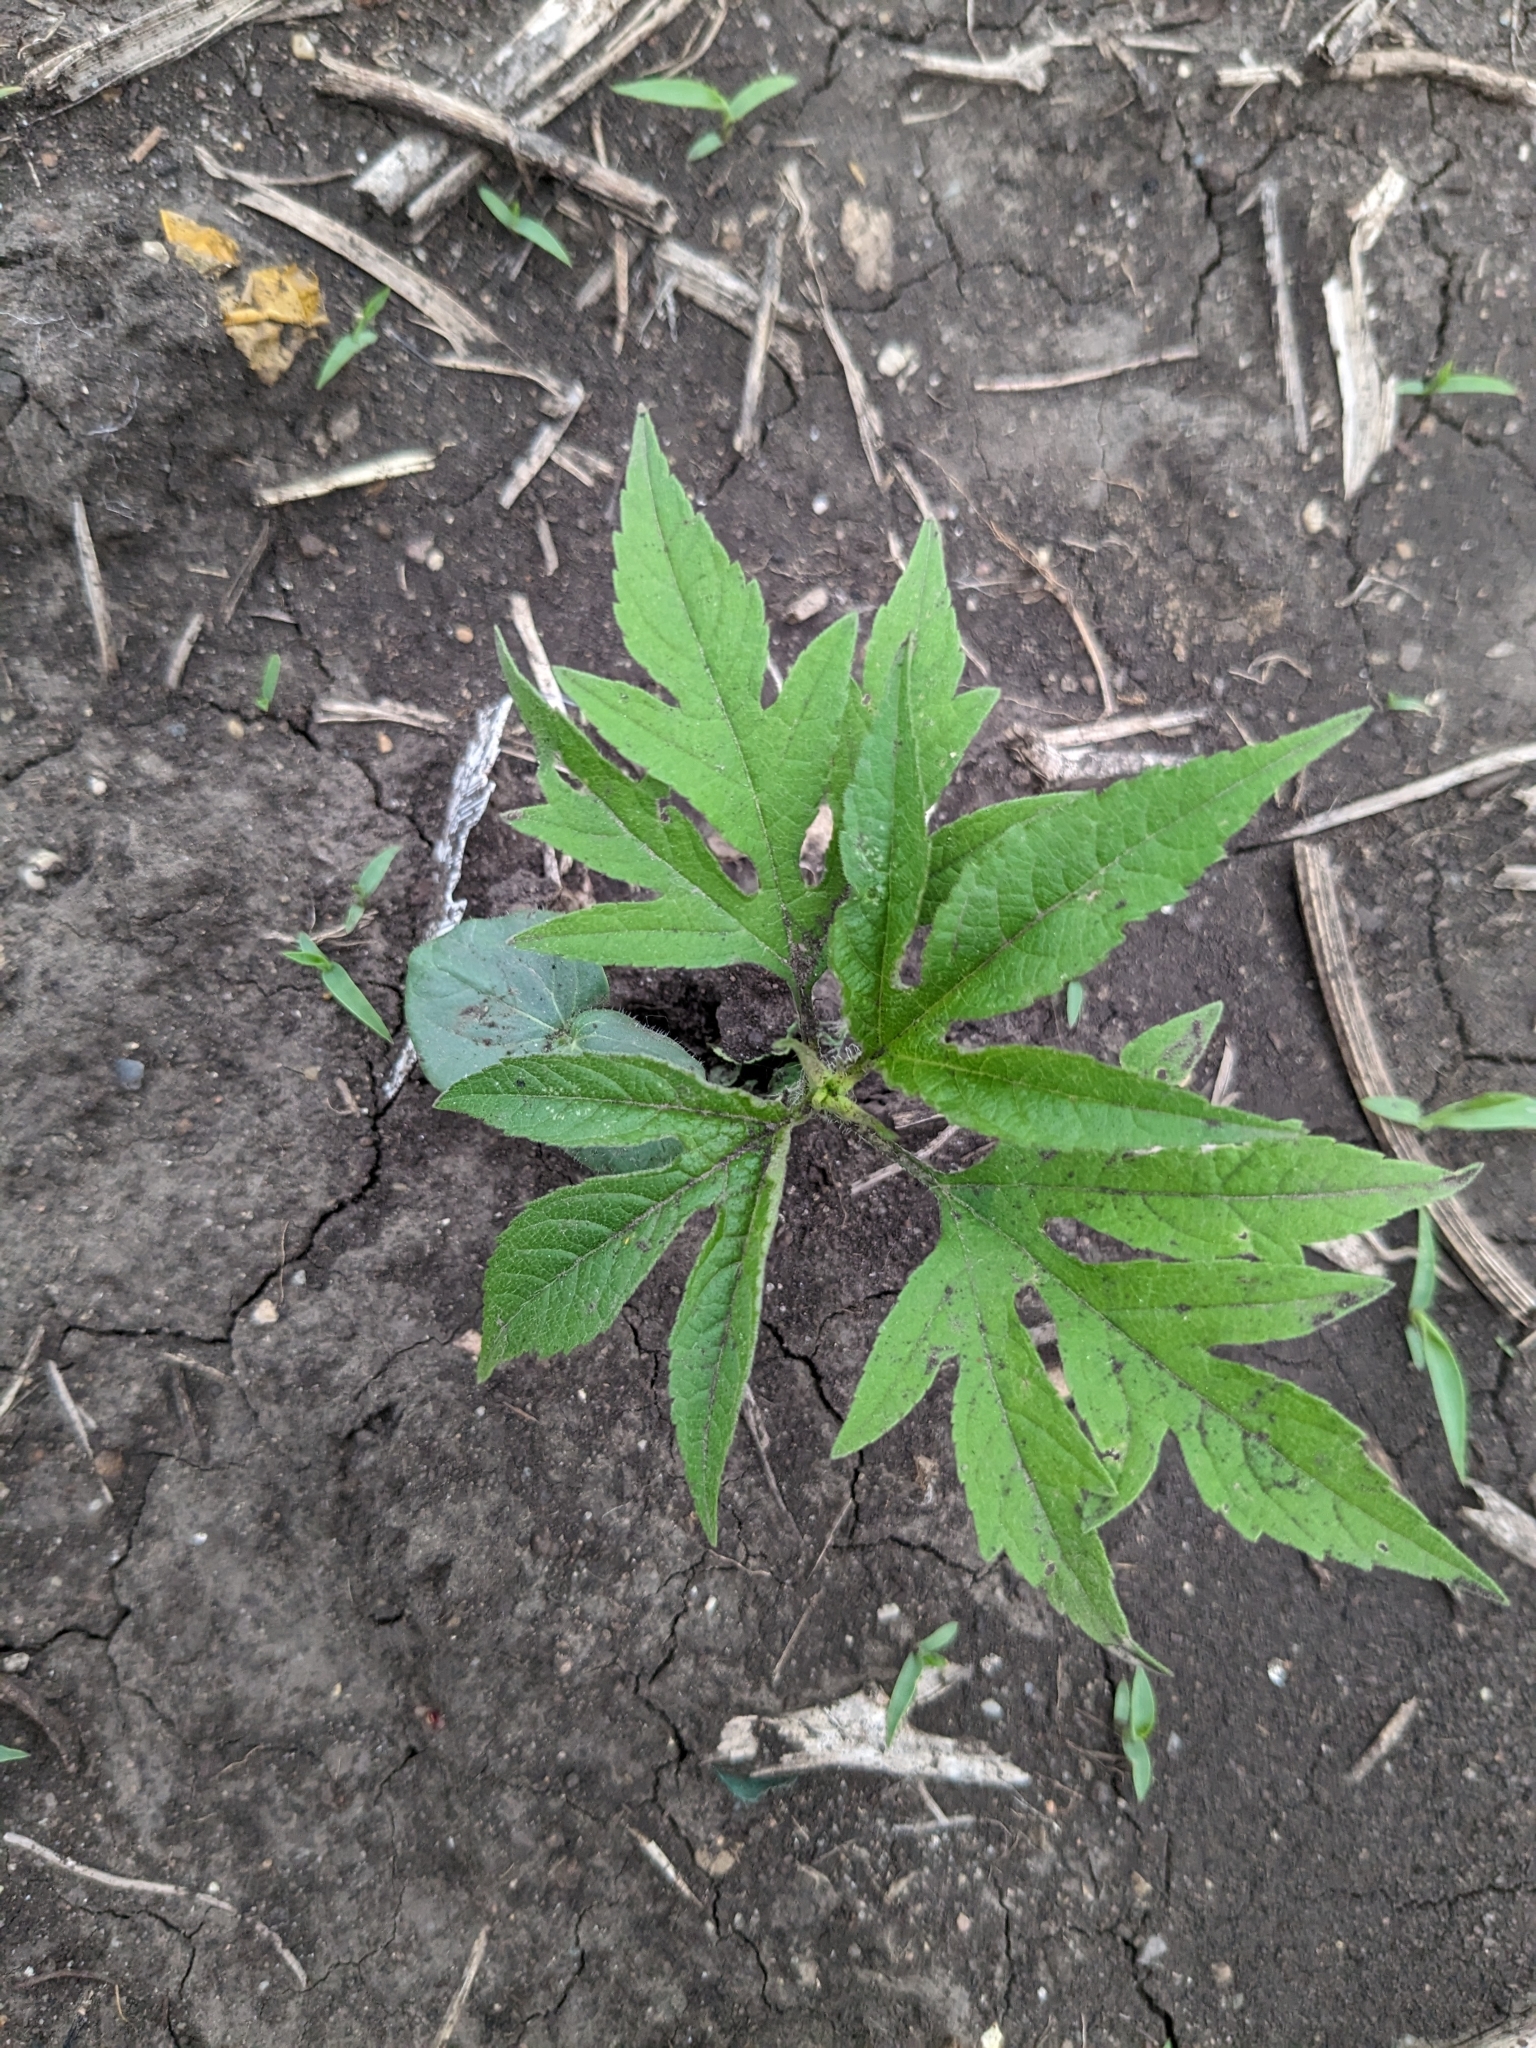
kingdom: Plantae
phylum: Tracheophyta
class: Magnoliopsida
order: Asterales
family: Asteraceae
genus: Ambrosia
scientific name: Ambrosia trifida
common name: Giant ragweed
